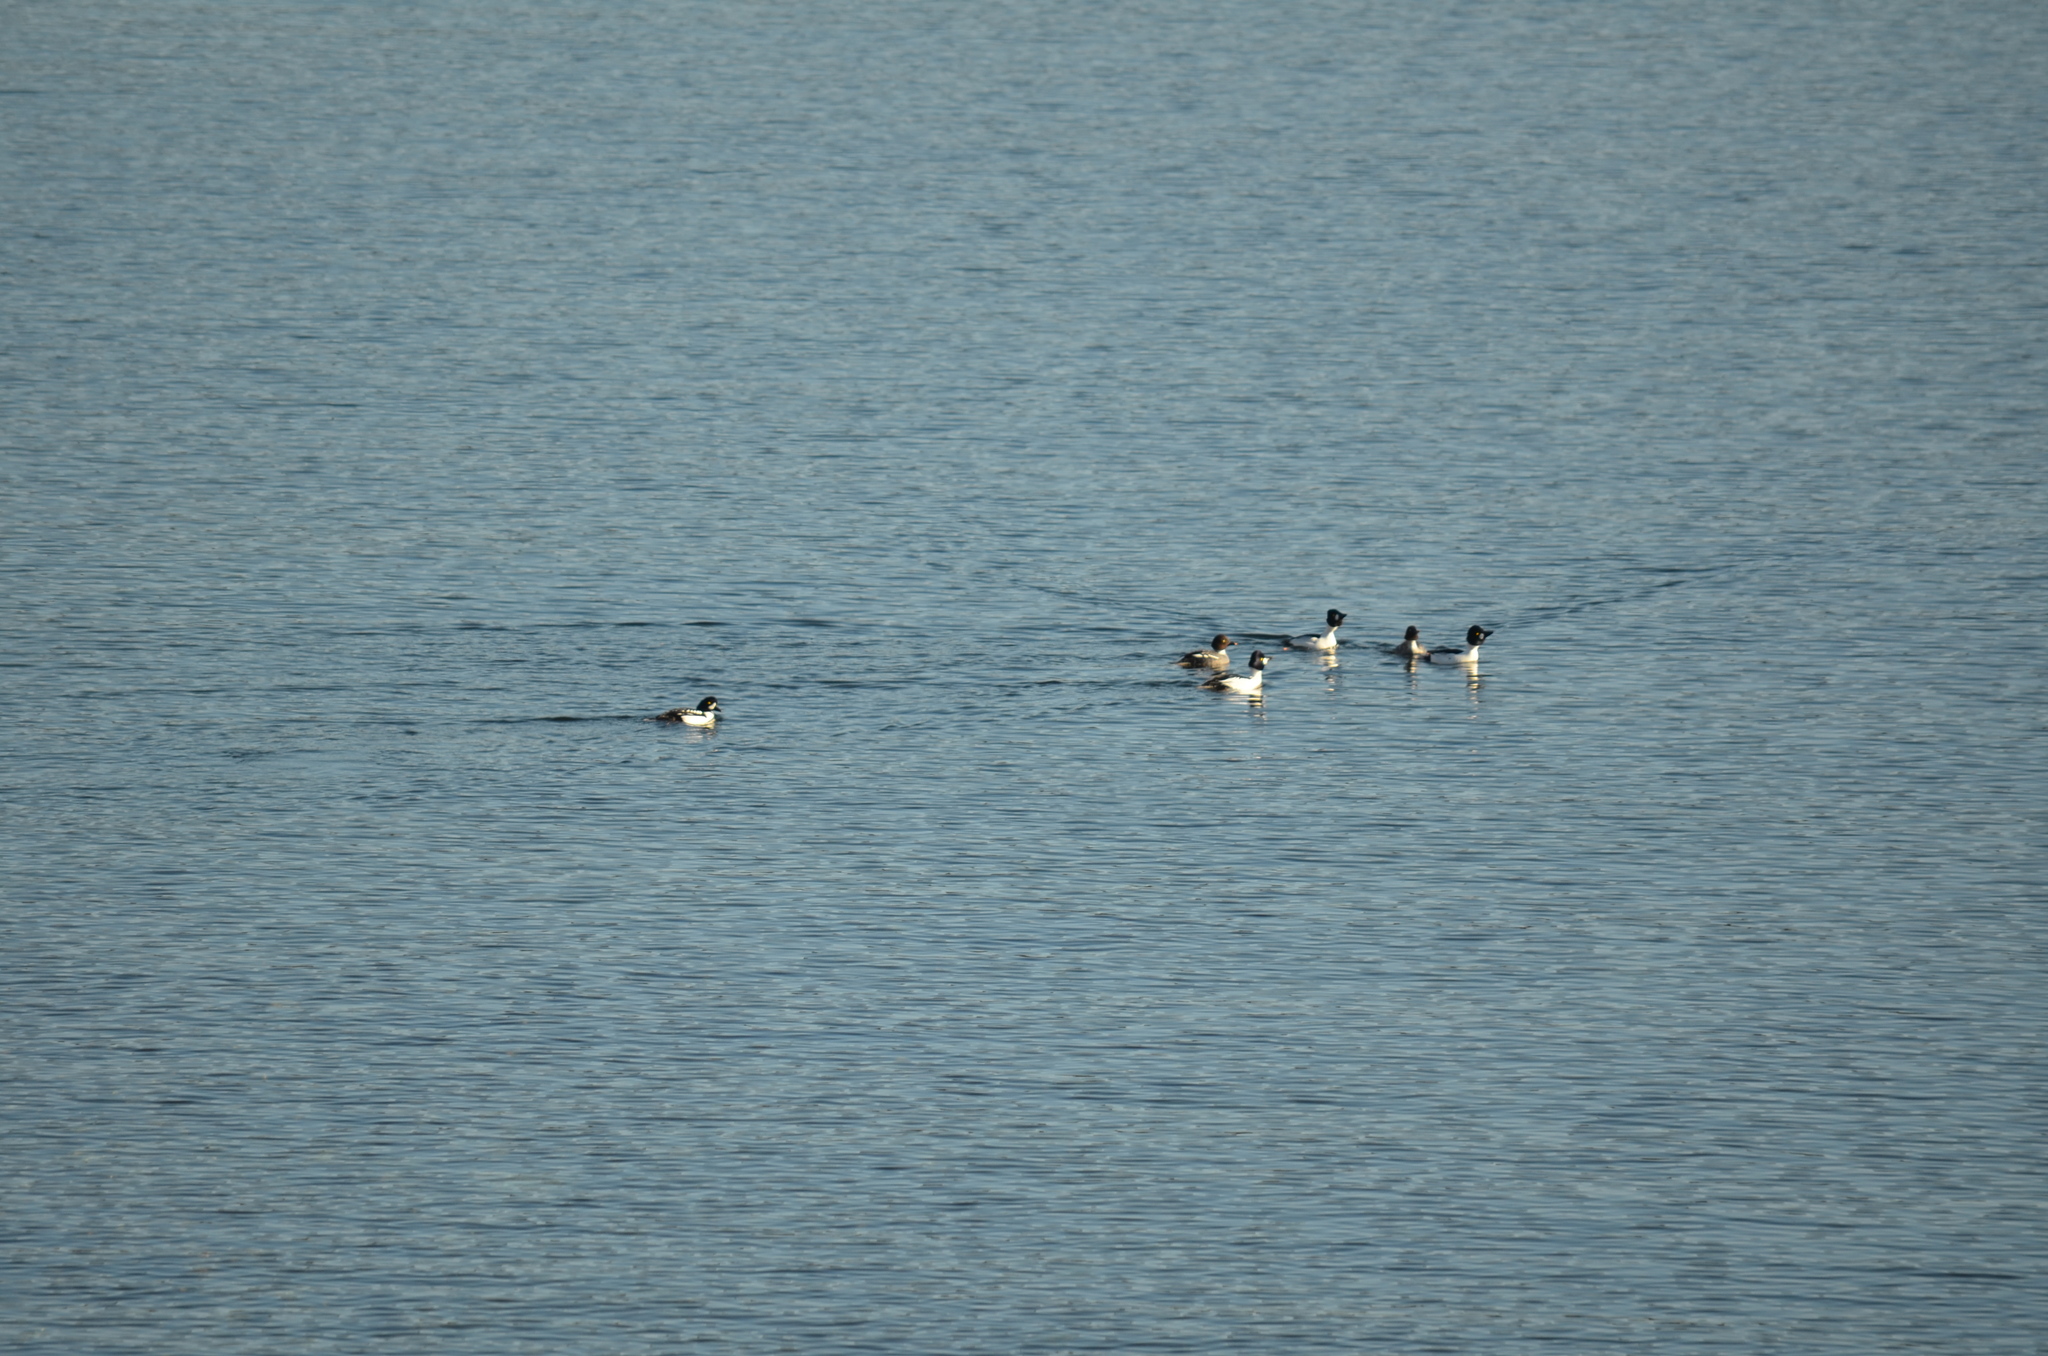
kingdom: Animalia
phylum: Chordata
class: Aves
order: Anseriformes
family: Anatidae
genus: Bucephala
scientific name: Bucephala islandica
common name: Barrow's goldeneye
